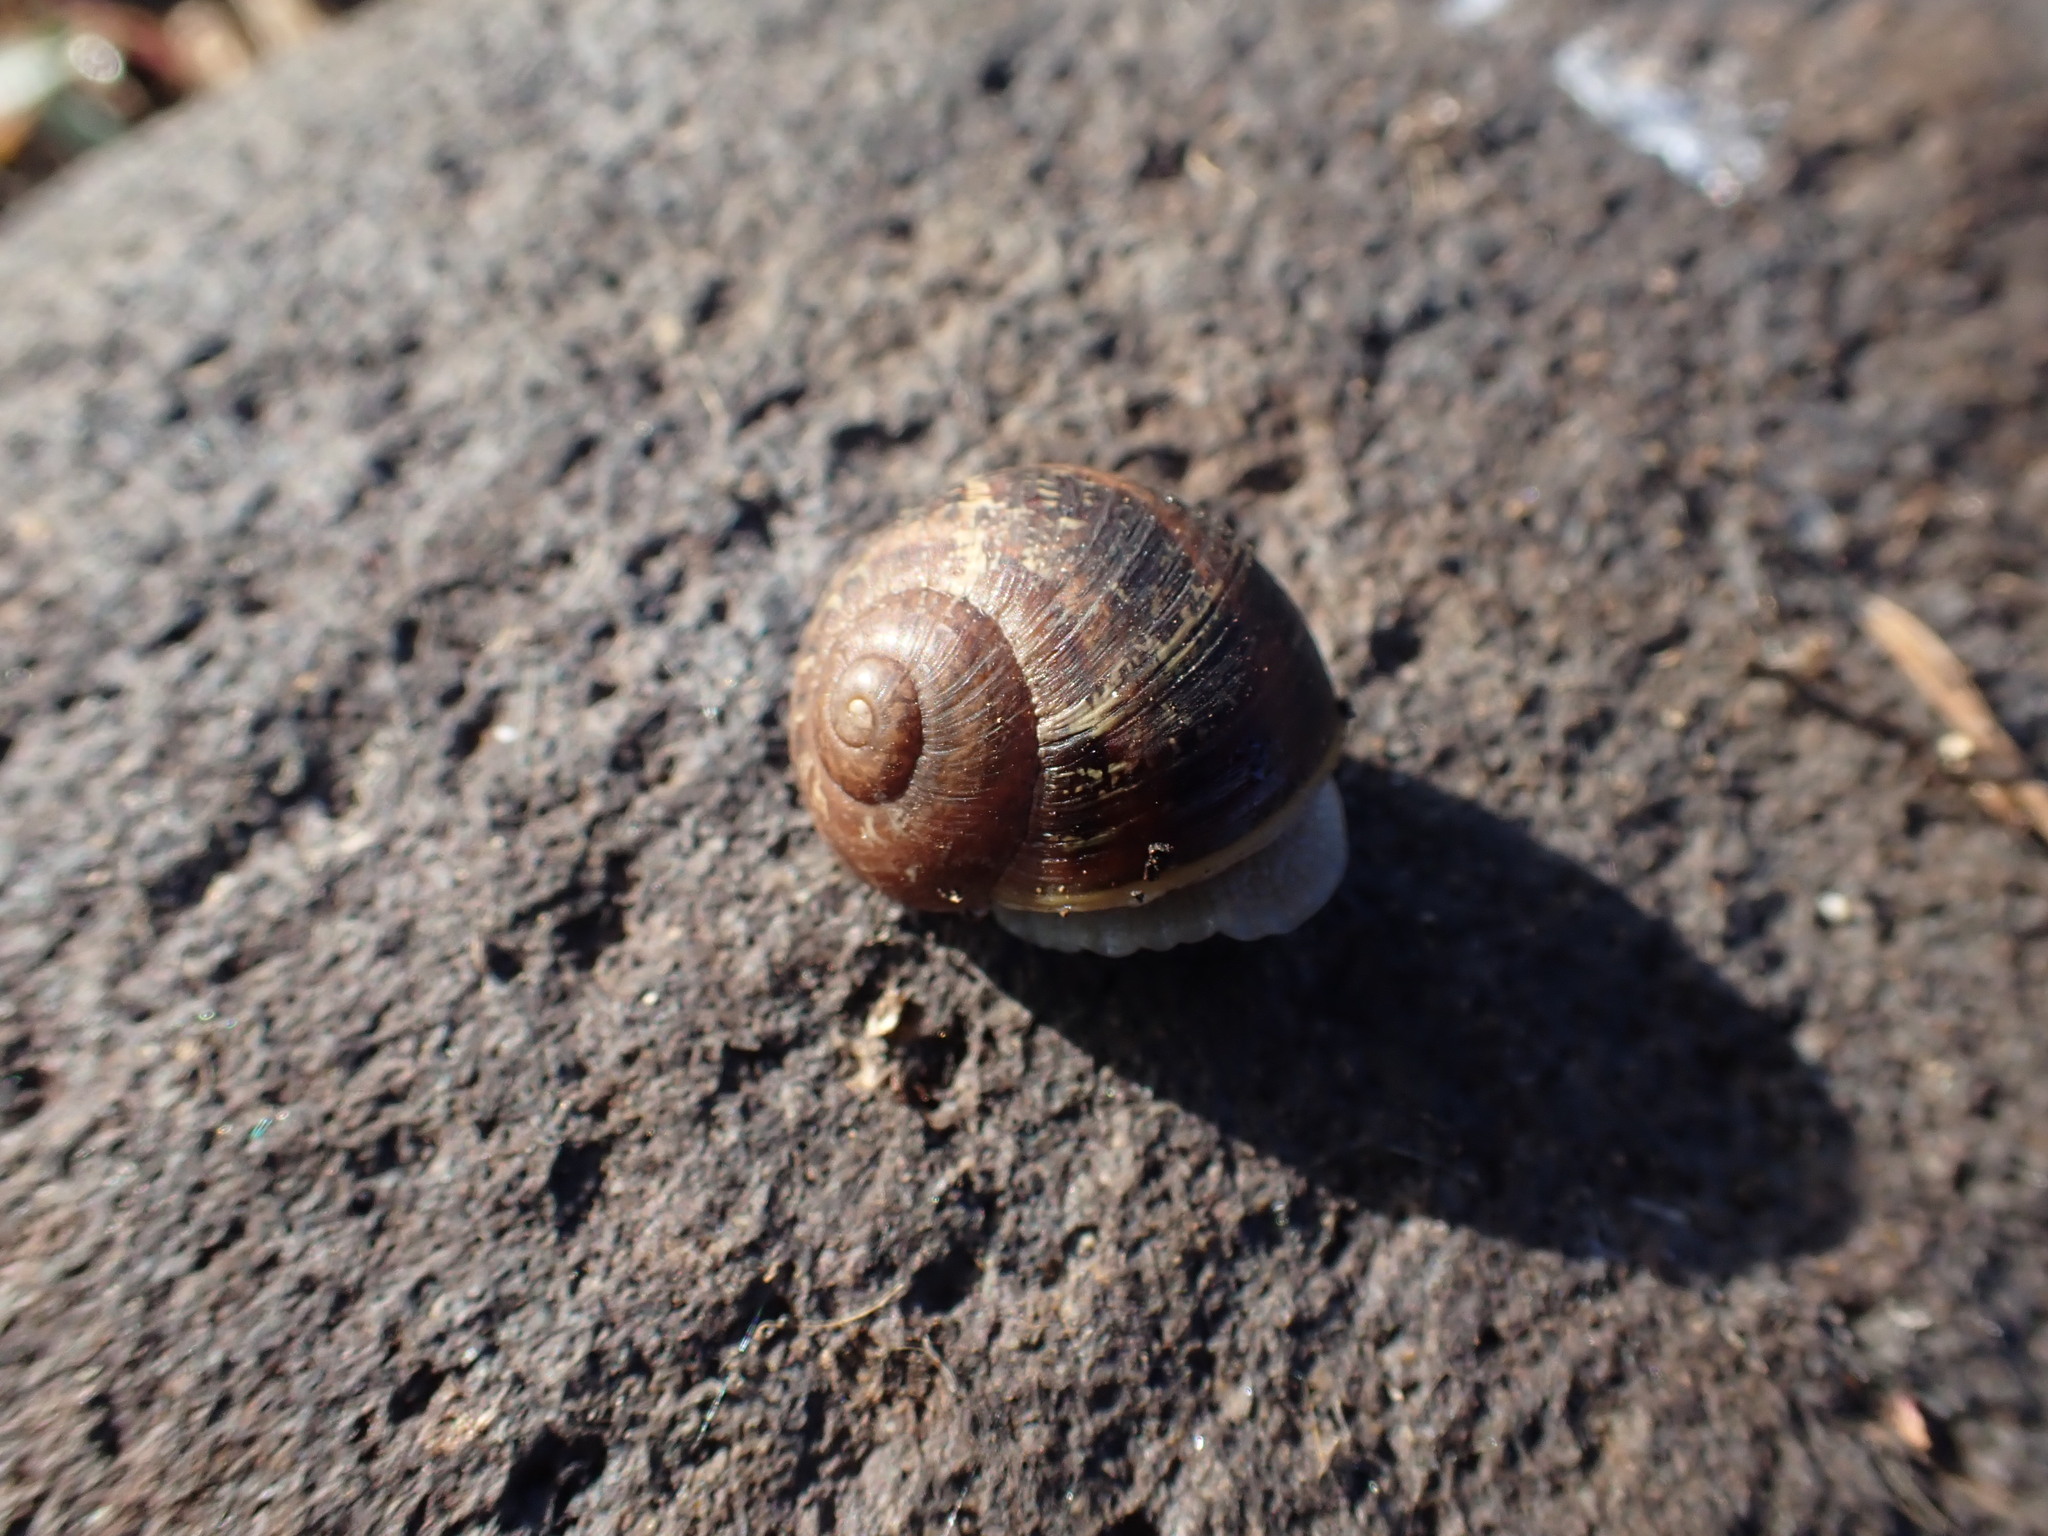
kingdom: Animalia
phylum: Mollusca
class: Gastropoda
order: Stylommatophora
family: Helicidae
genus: Cornu
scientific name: Cornu aspersum
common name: Brown garden snail
